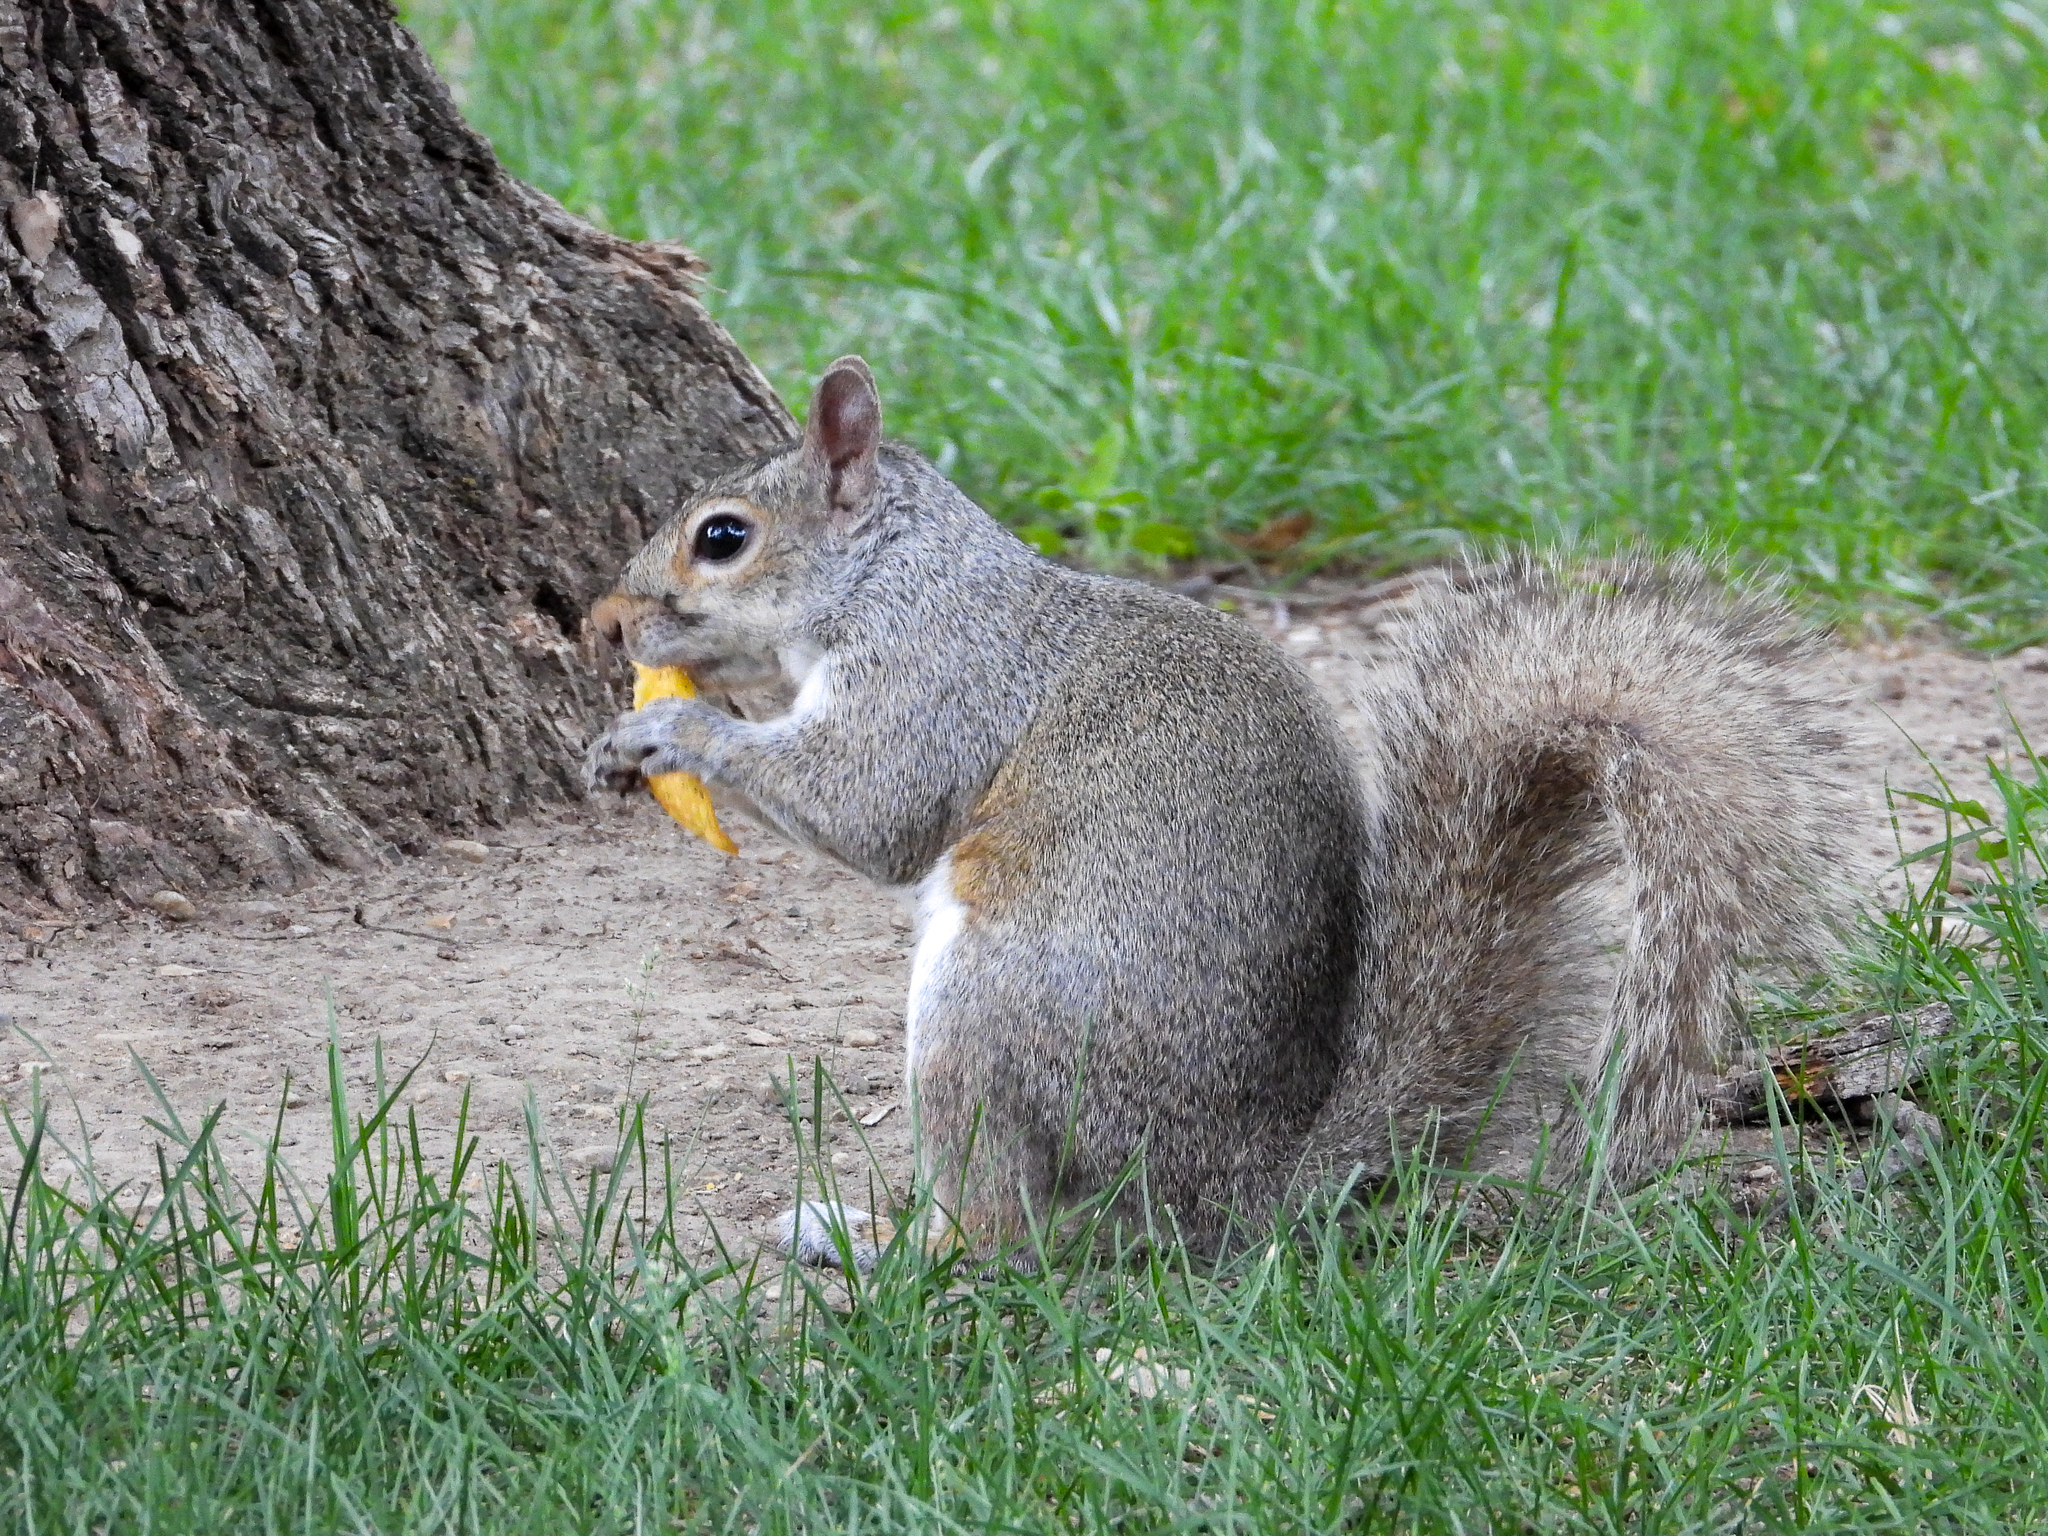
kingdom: Animalia
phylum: Chordata
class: Mammalia
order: Rodentia
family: Sciuridae
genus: Sciurus
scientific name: Sciurus carolinensis
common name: Eastern gray squirrel
